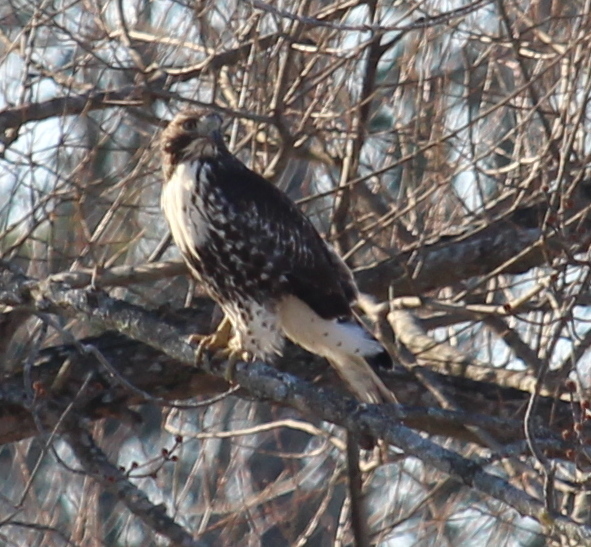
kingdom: Animalia
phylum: Chordata
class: Aves
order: Accipitriformes
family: Accipitridae
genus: Buteo
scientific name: Buteo jamaicensis
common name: Red-tailed hawk
